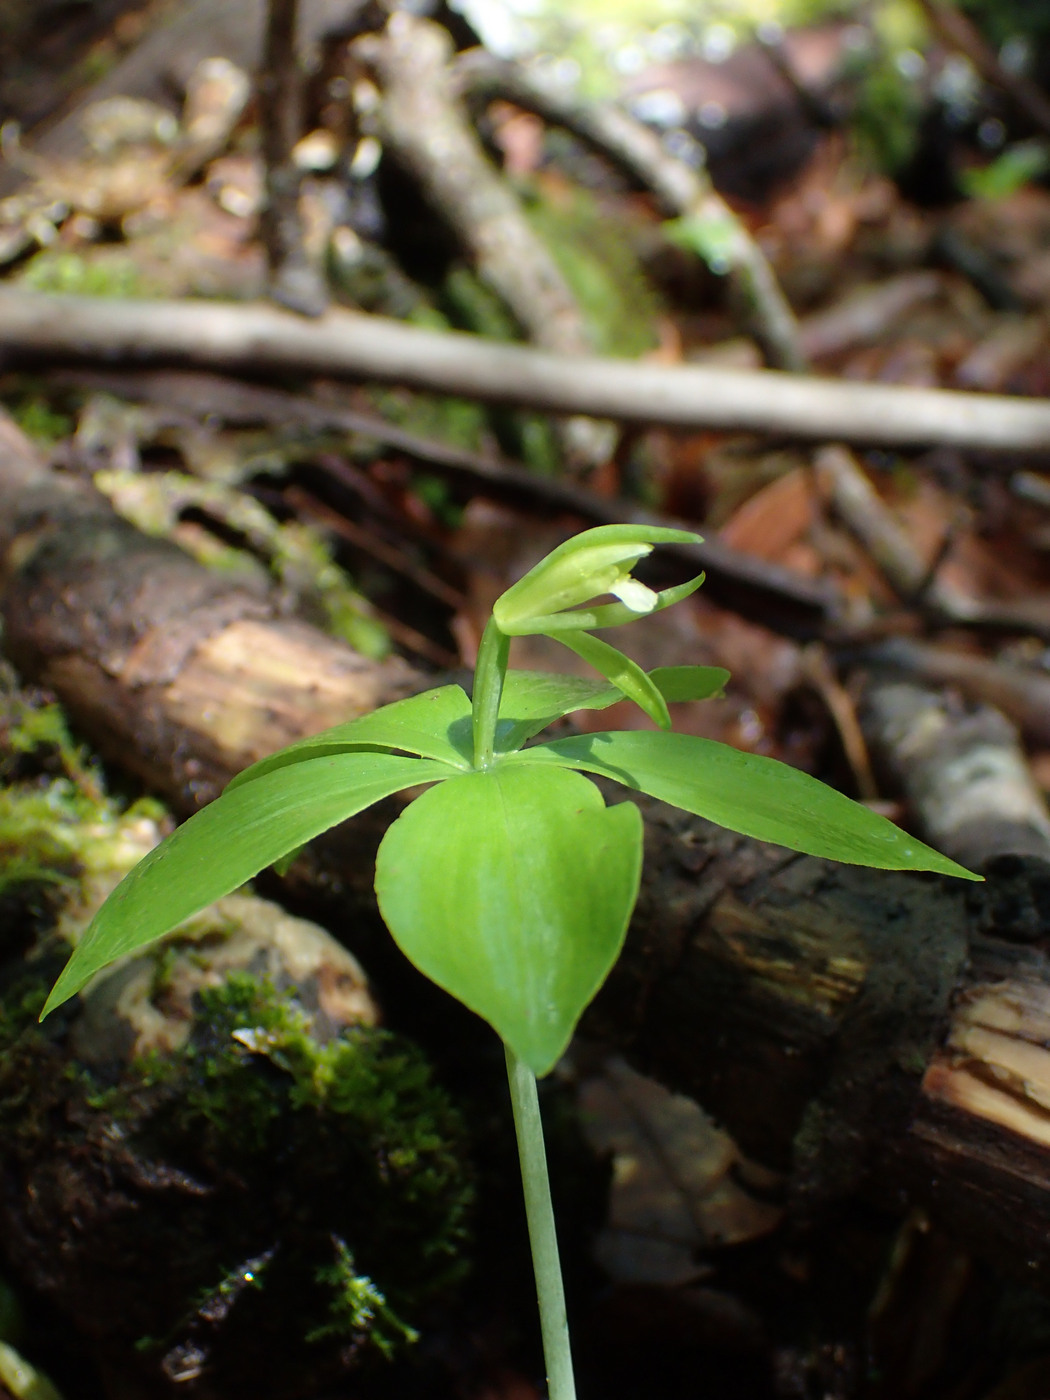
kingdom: Plantae
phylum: Tracheophyta
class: Liliopsida
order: Asparagales
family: Orchidaceae
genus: Isotria
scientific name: Isotria medeoloides
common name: Small whorled pogonia
